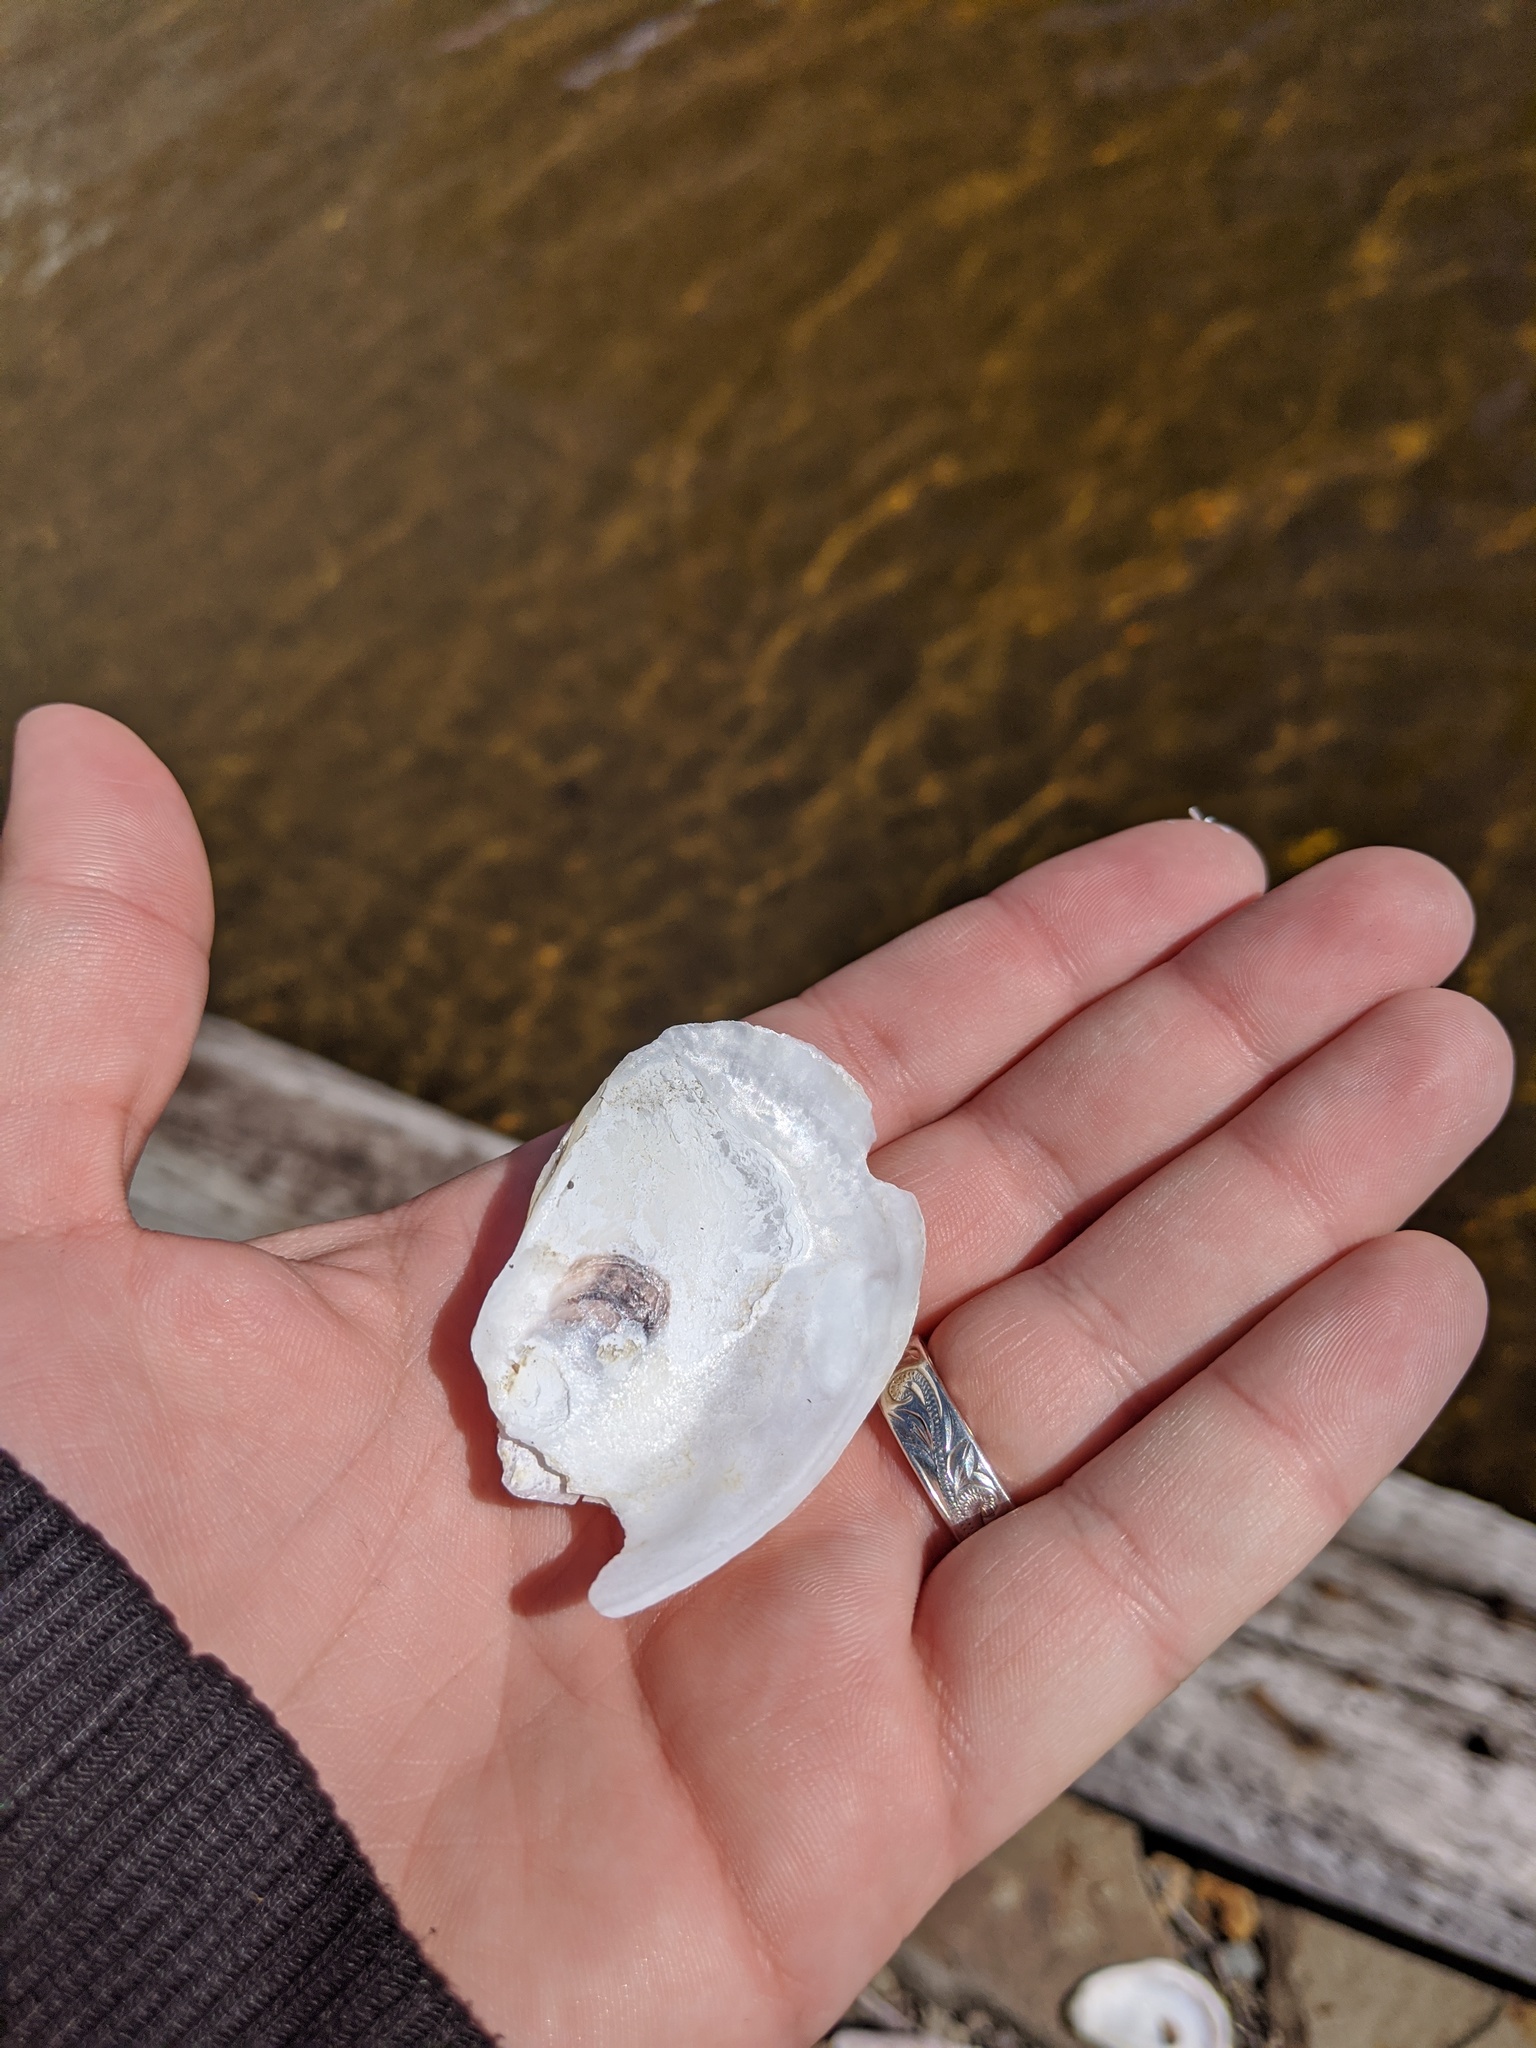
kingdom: Animalia
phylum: Mollusca
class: Bivalvia
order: Ostreida
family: Ostreidae
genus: Crassostrea
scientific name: Crassostrea virginica
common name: American oyster
